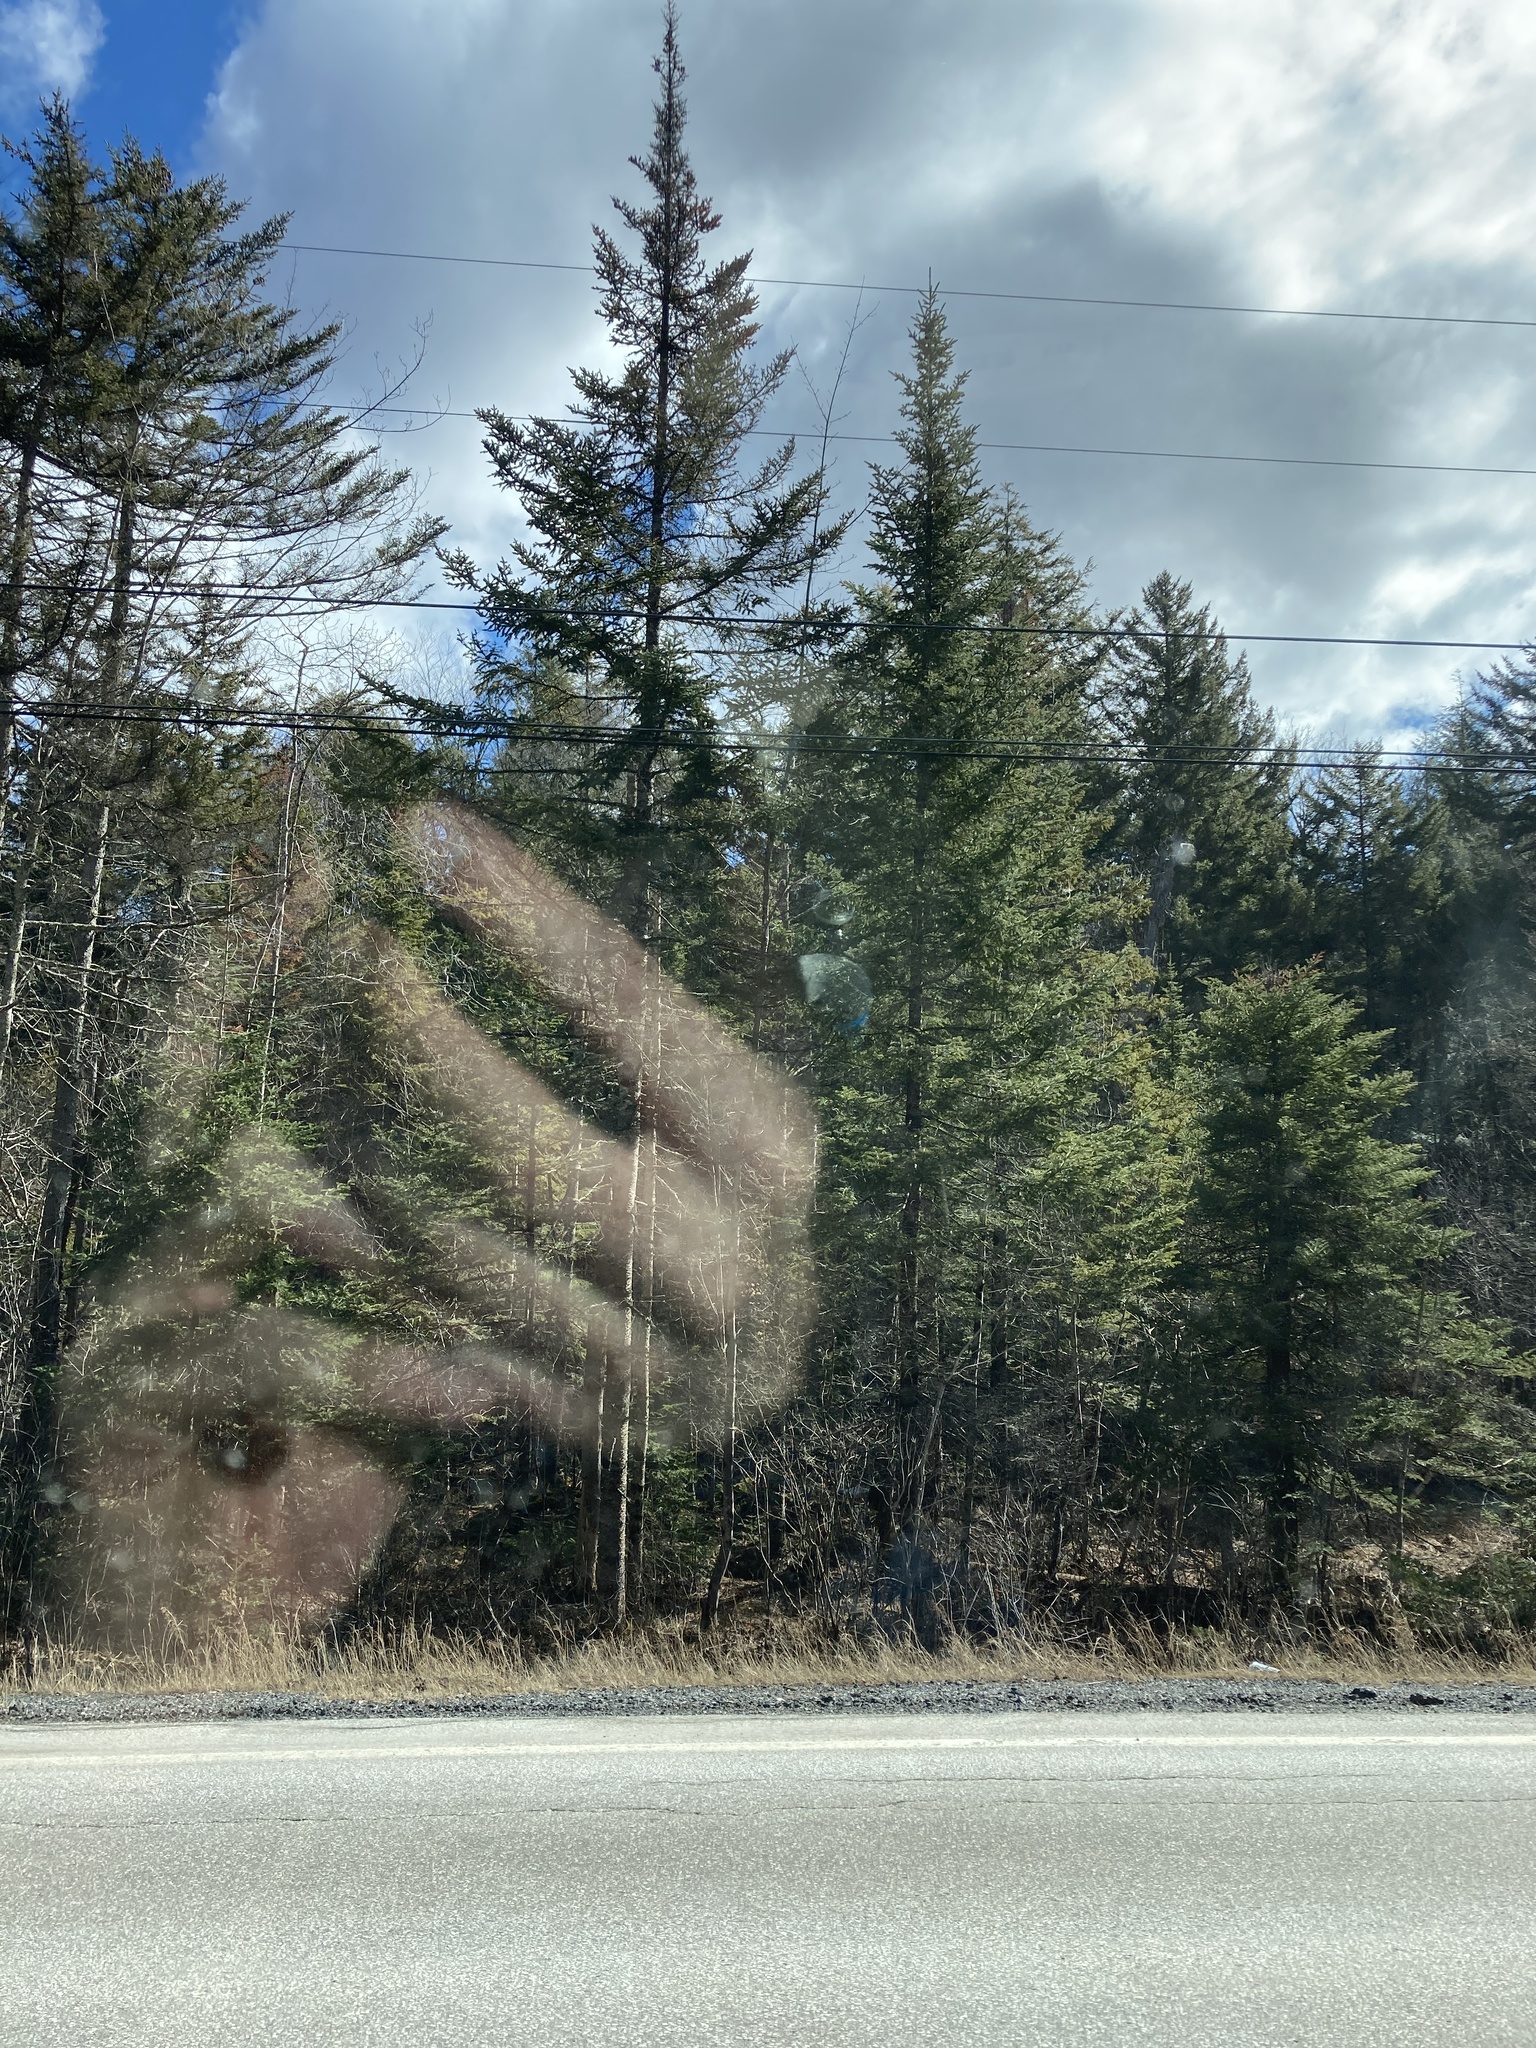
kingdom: Plantae
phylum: Tracheophyta
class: Pinopsida
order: Pinales
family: Pinaceae
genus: Abies
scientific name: Abies balsamea
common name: Balsam fir
